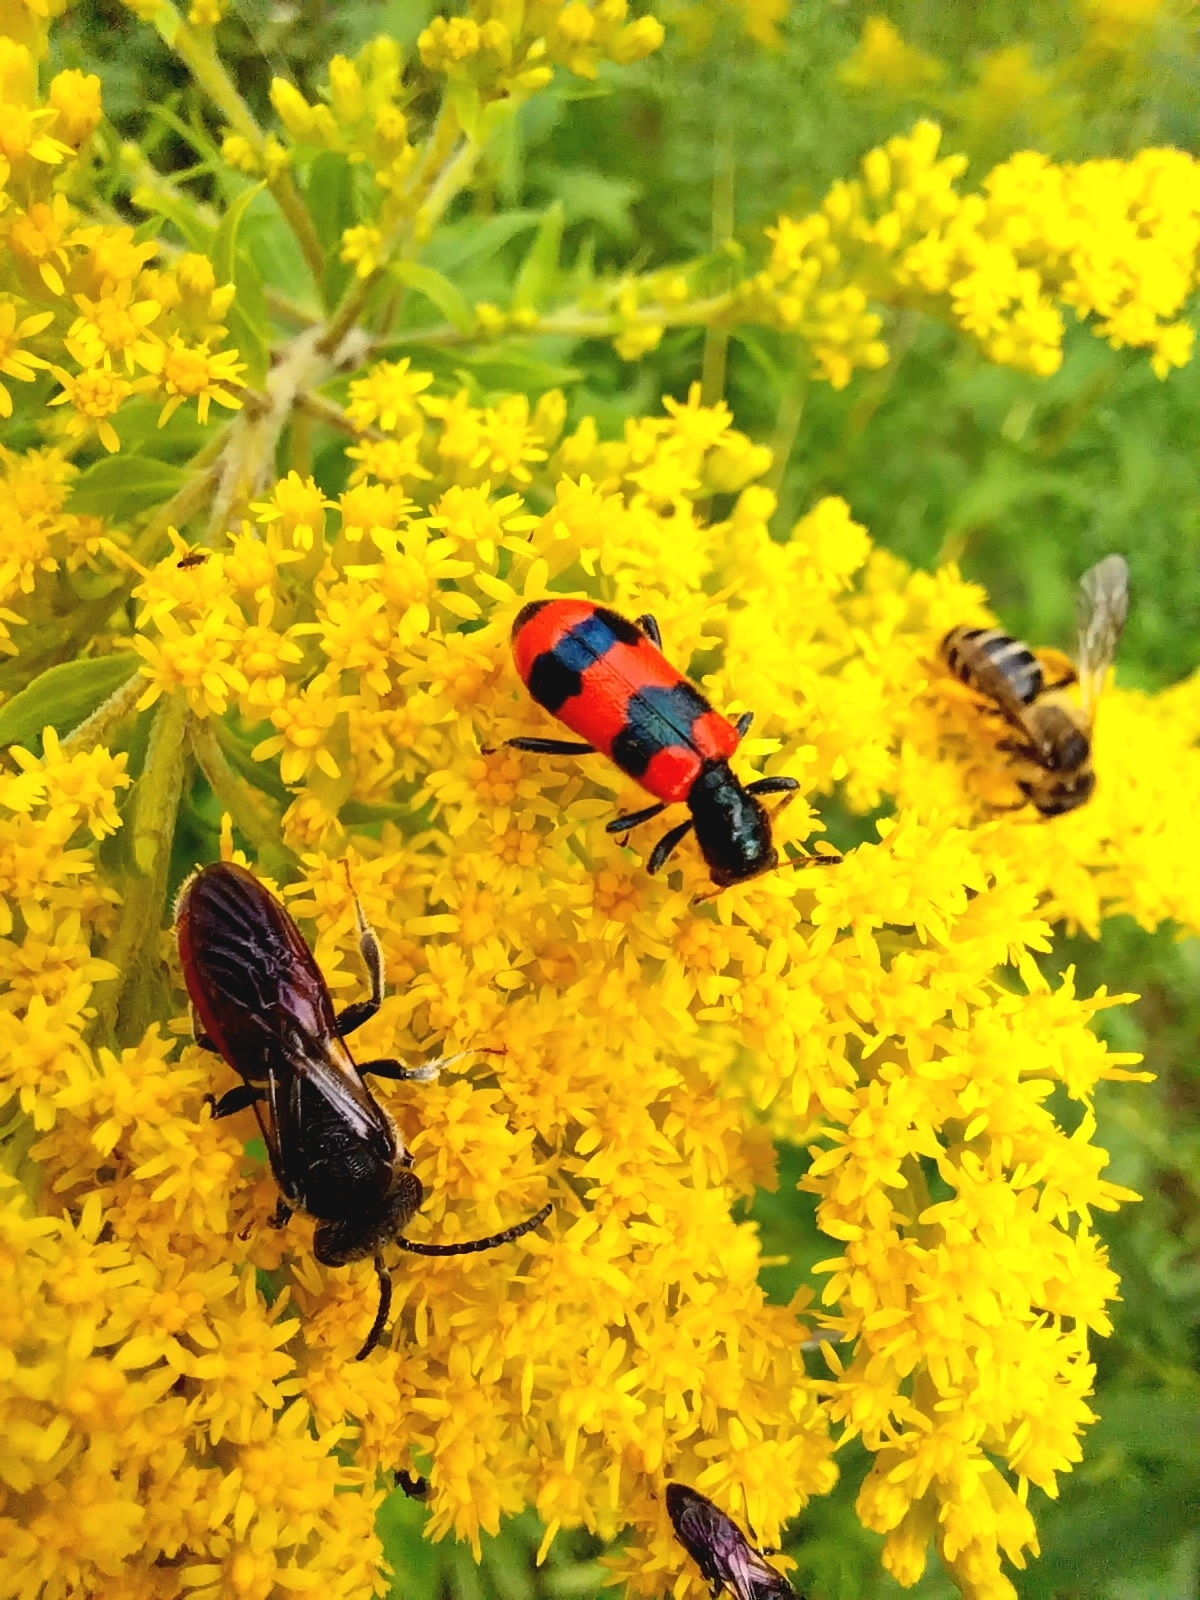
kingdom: Animalia
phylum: Arthropoda
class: Insecta
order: Coleoptera
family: Cleridae
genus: Trichodes
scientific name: Trichodes apiarius
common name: Bee-eating beetle
